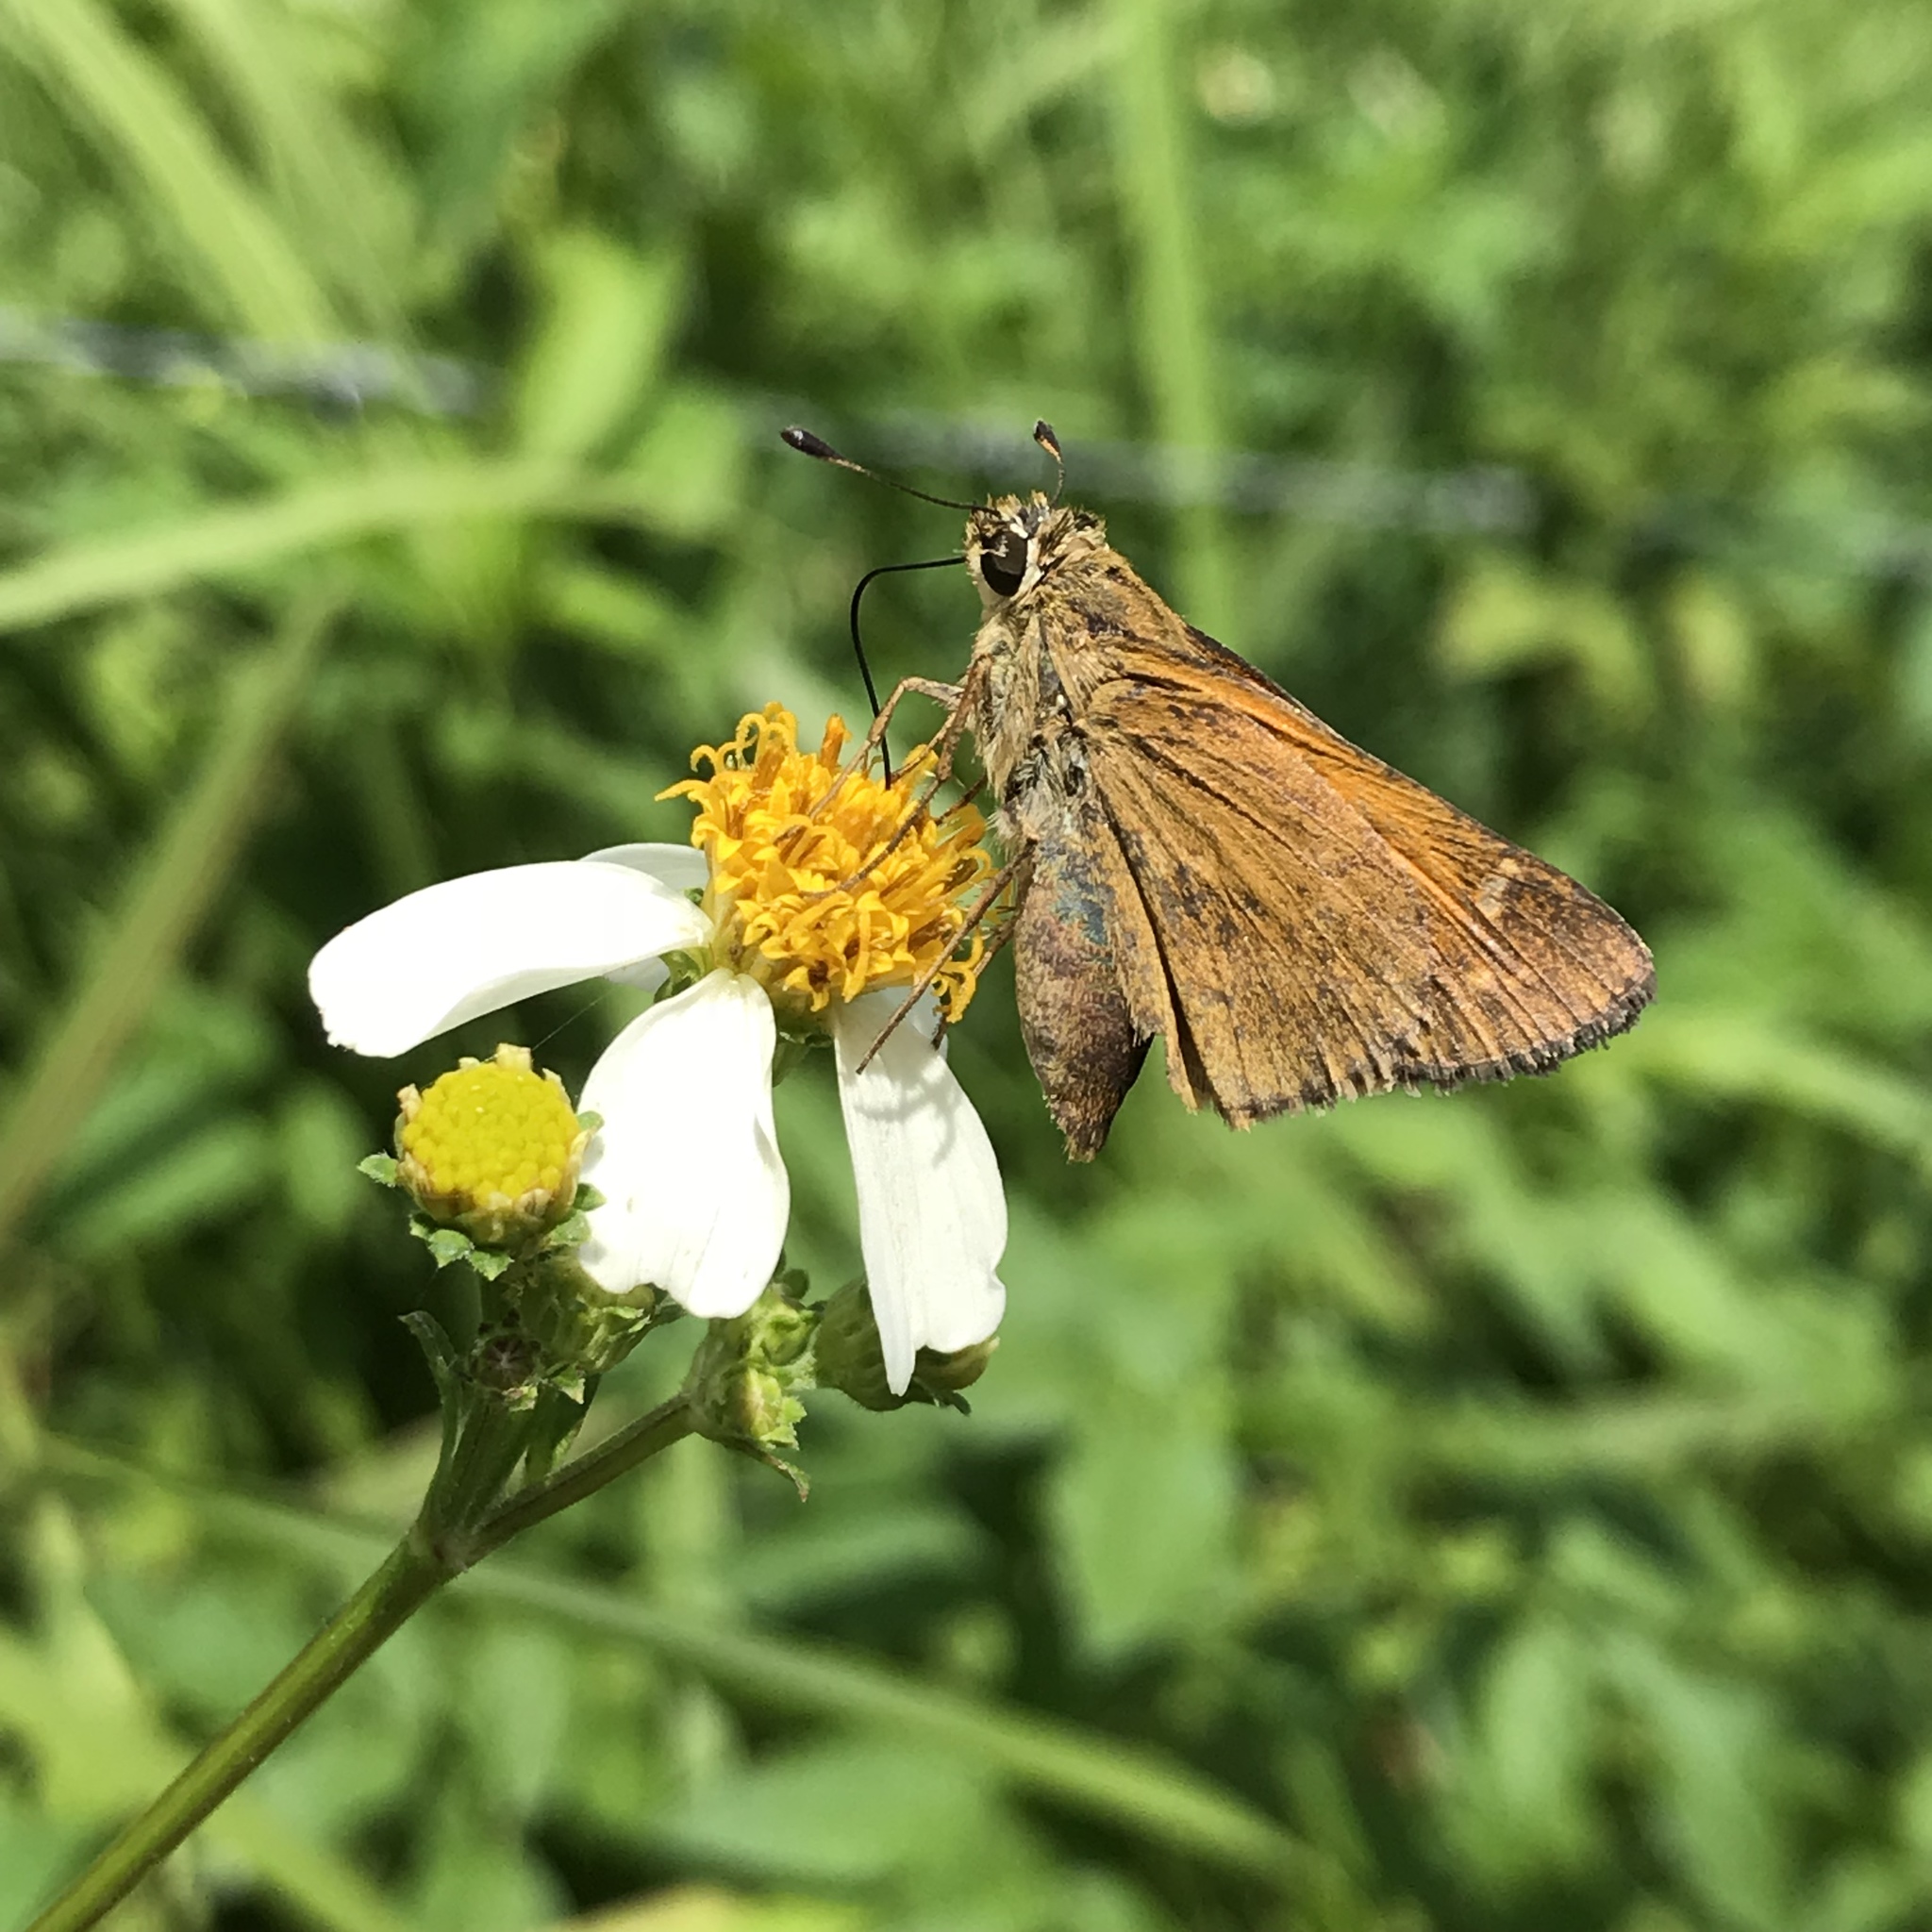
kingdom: Animalia
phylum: Arthropoda
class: Insecta
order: Lepidoptera
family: Hesperiidae
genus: Atalopedes
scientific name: Atalopedes
